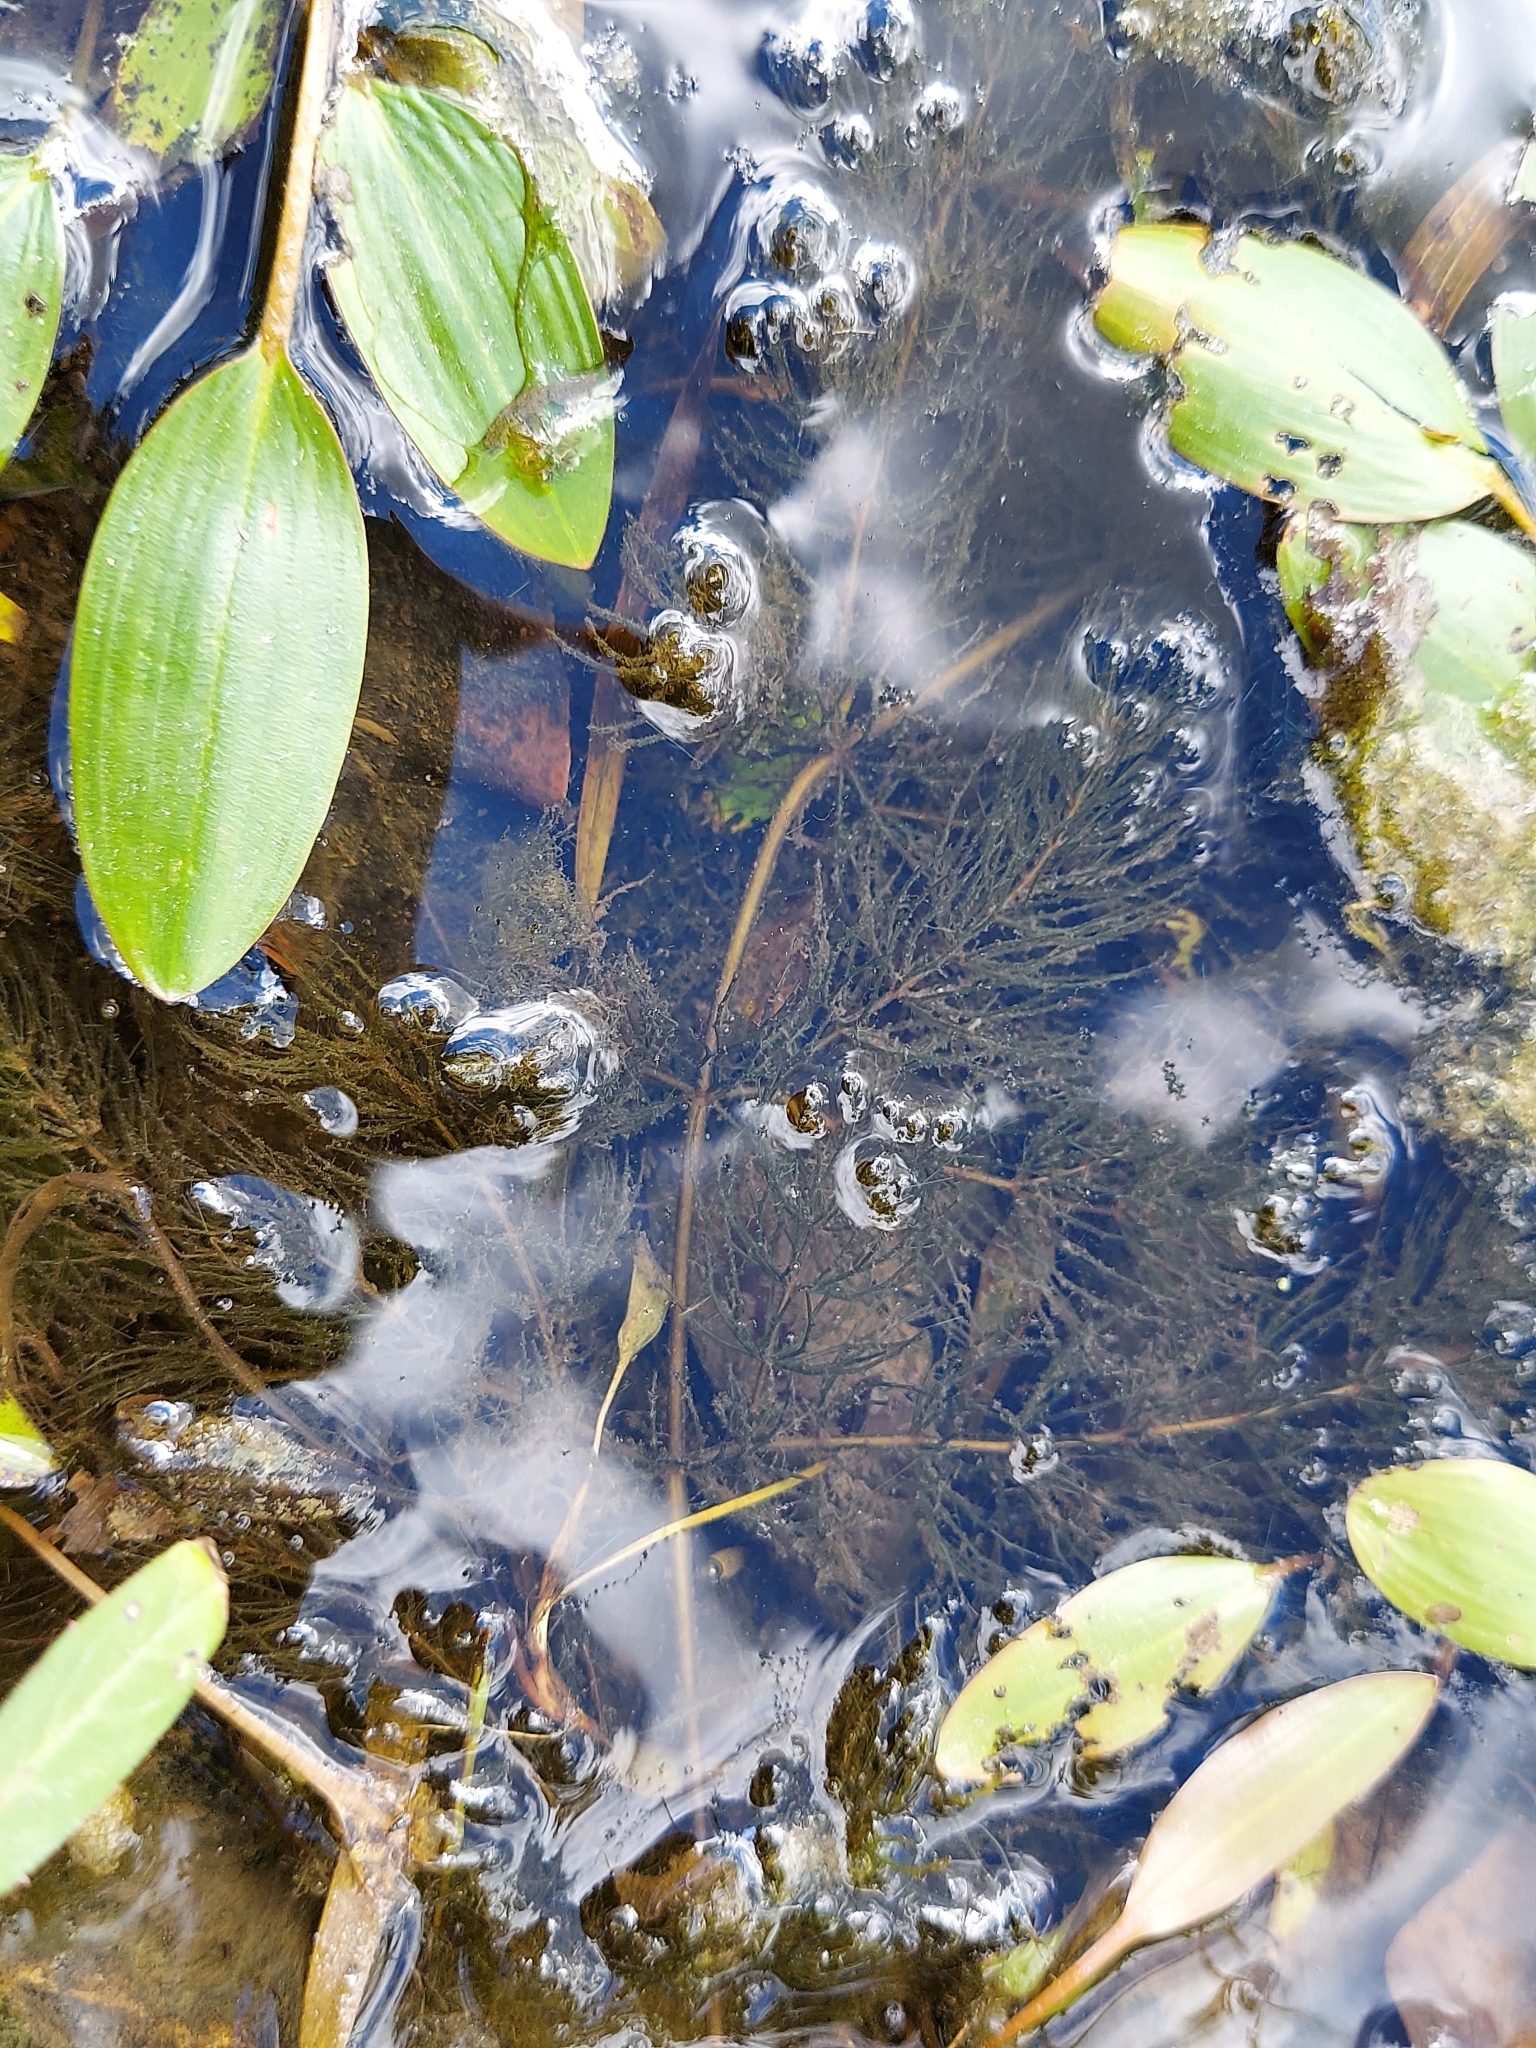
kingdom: Plantae
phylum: Tracheophyta
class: Magnoliopsida
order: Ceratophyllales
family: Ceratophyllaceae
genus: Ceratophyllum
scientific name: Ceratophyllum demersum
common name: Rigid hornwort
